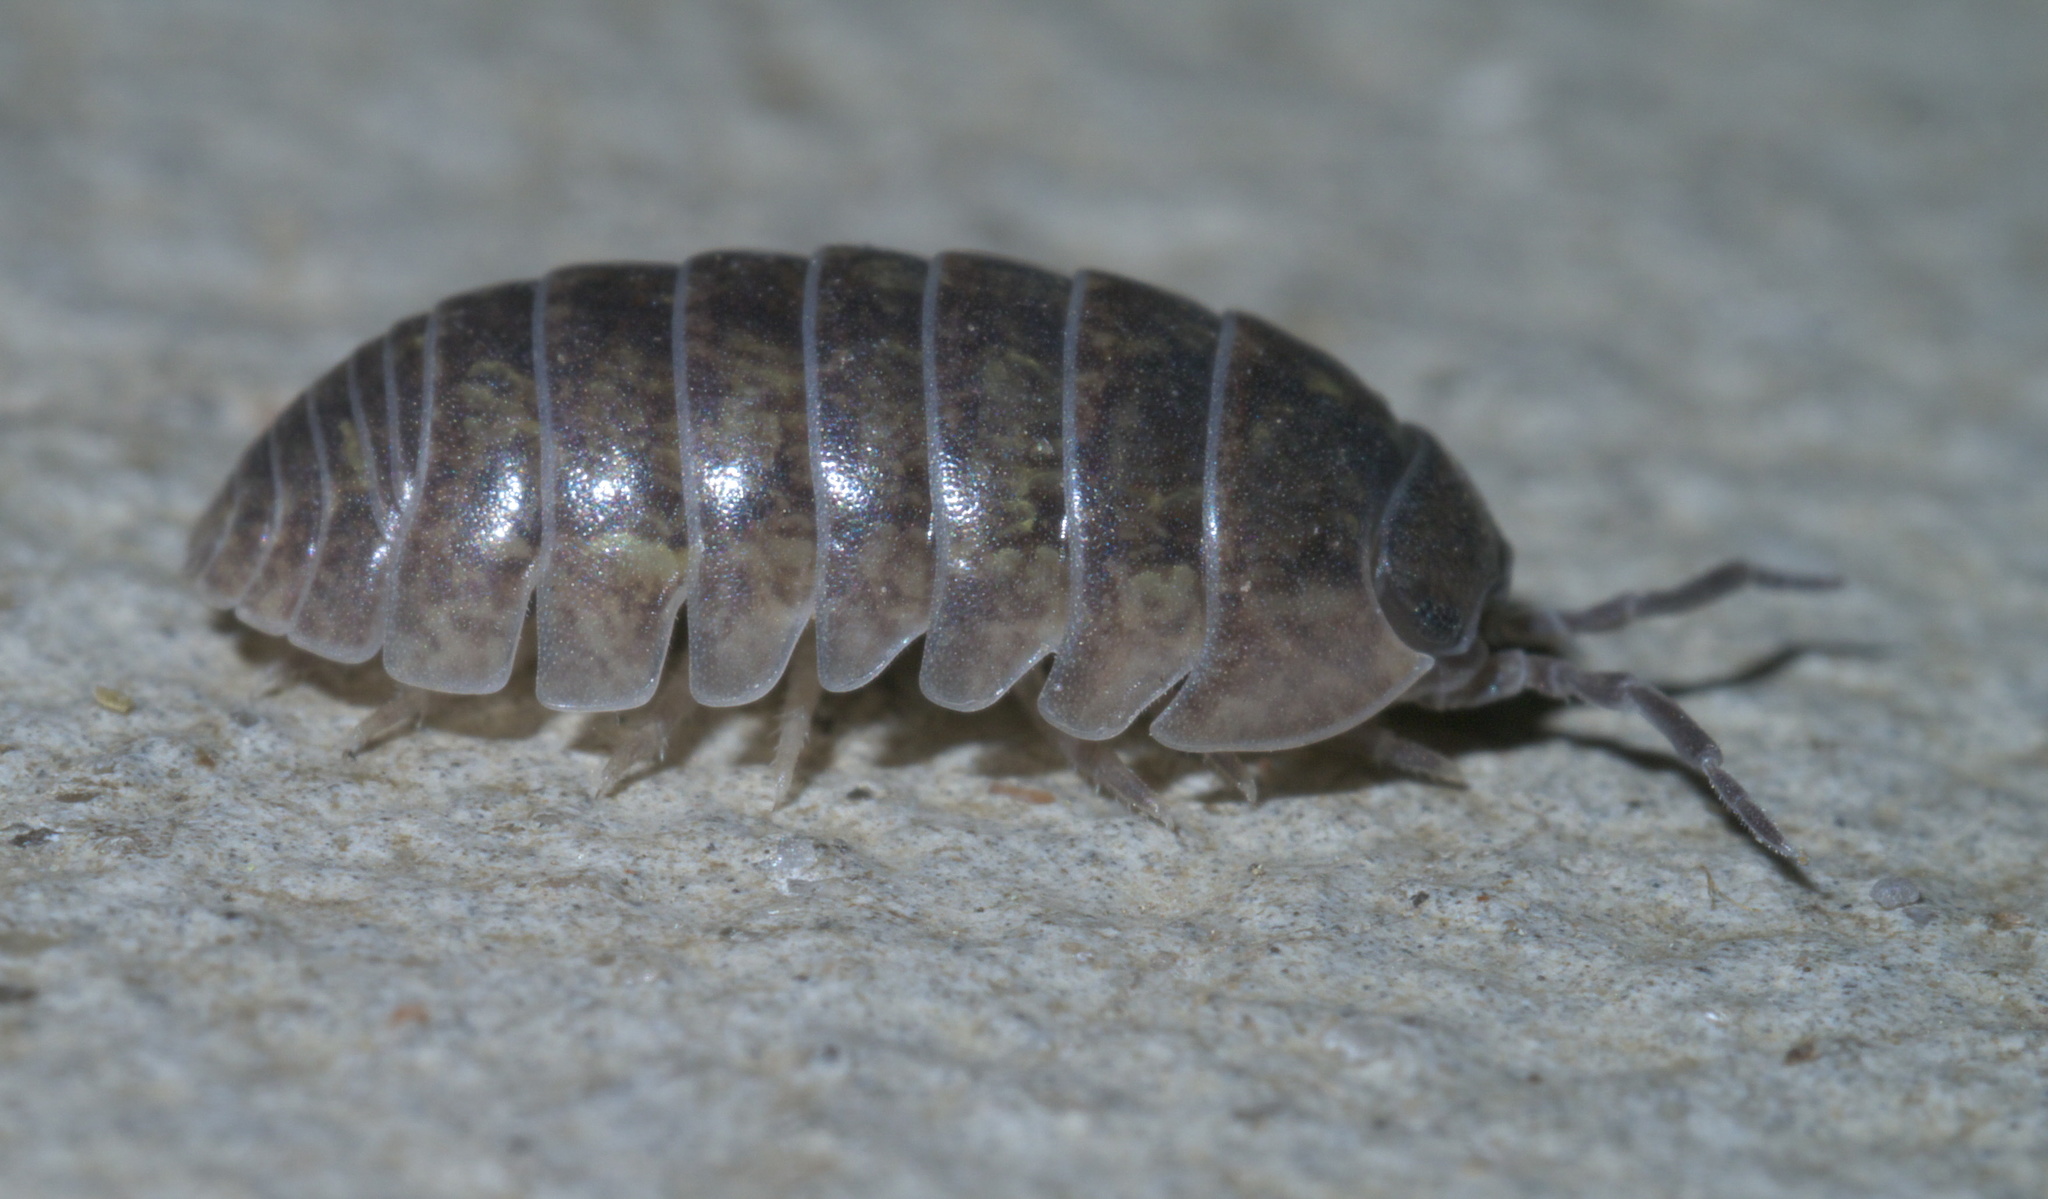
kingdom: Animalia
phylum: Arthropoda
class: Malacostraca
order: Isopoda
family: Armadillidiidae
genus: Armadillidium
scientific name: Armadillidium vulgare
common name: Common pill woodlouse
